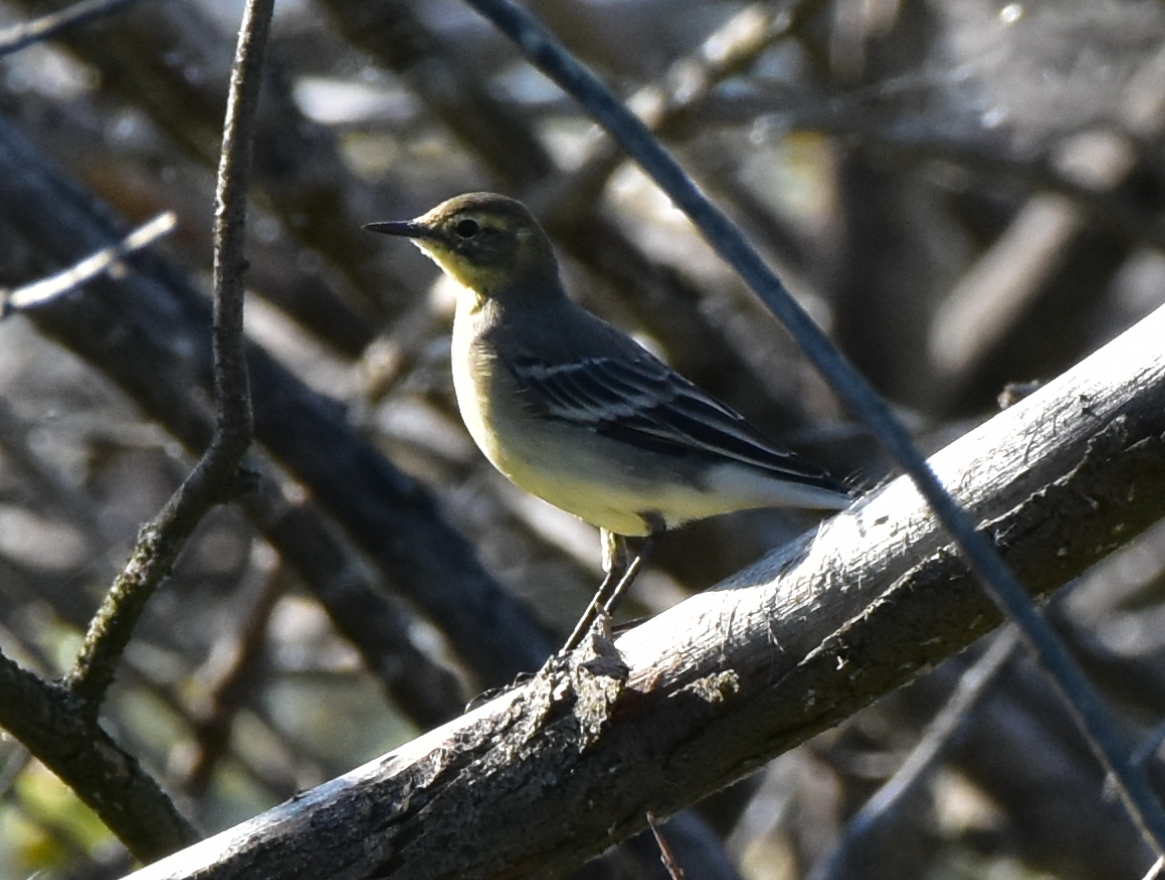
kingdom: Animalia
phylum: Chordata
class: Aves
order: Passeriformes
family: Motacillidae
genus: Motacilla
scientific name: Motacilla citreola
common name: Citrine wagtail
